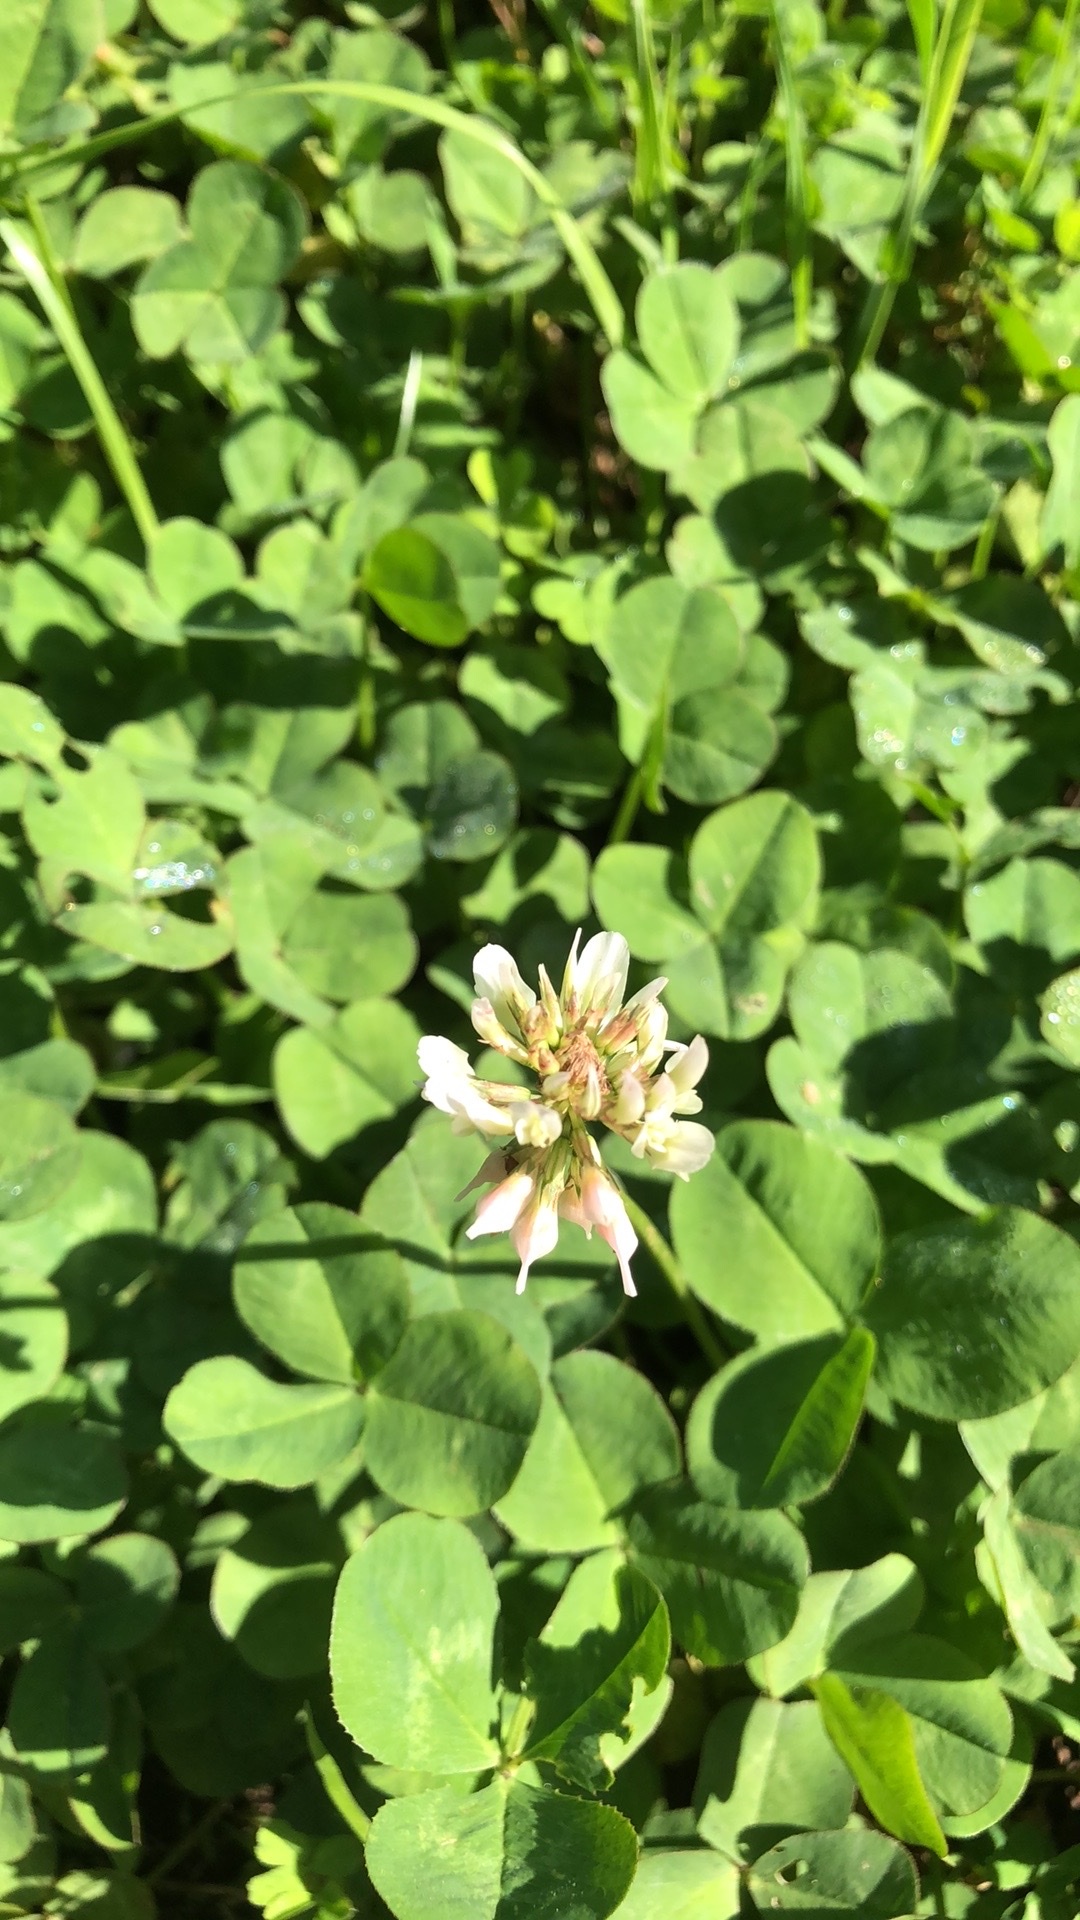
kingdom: Plantae
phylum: Tracheophyta
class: Magnoliopsida
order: Fabales
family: Fabaceae
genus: Trifolium
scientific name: Trifolium repens
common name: White clover
